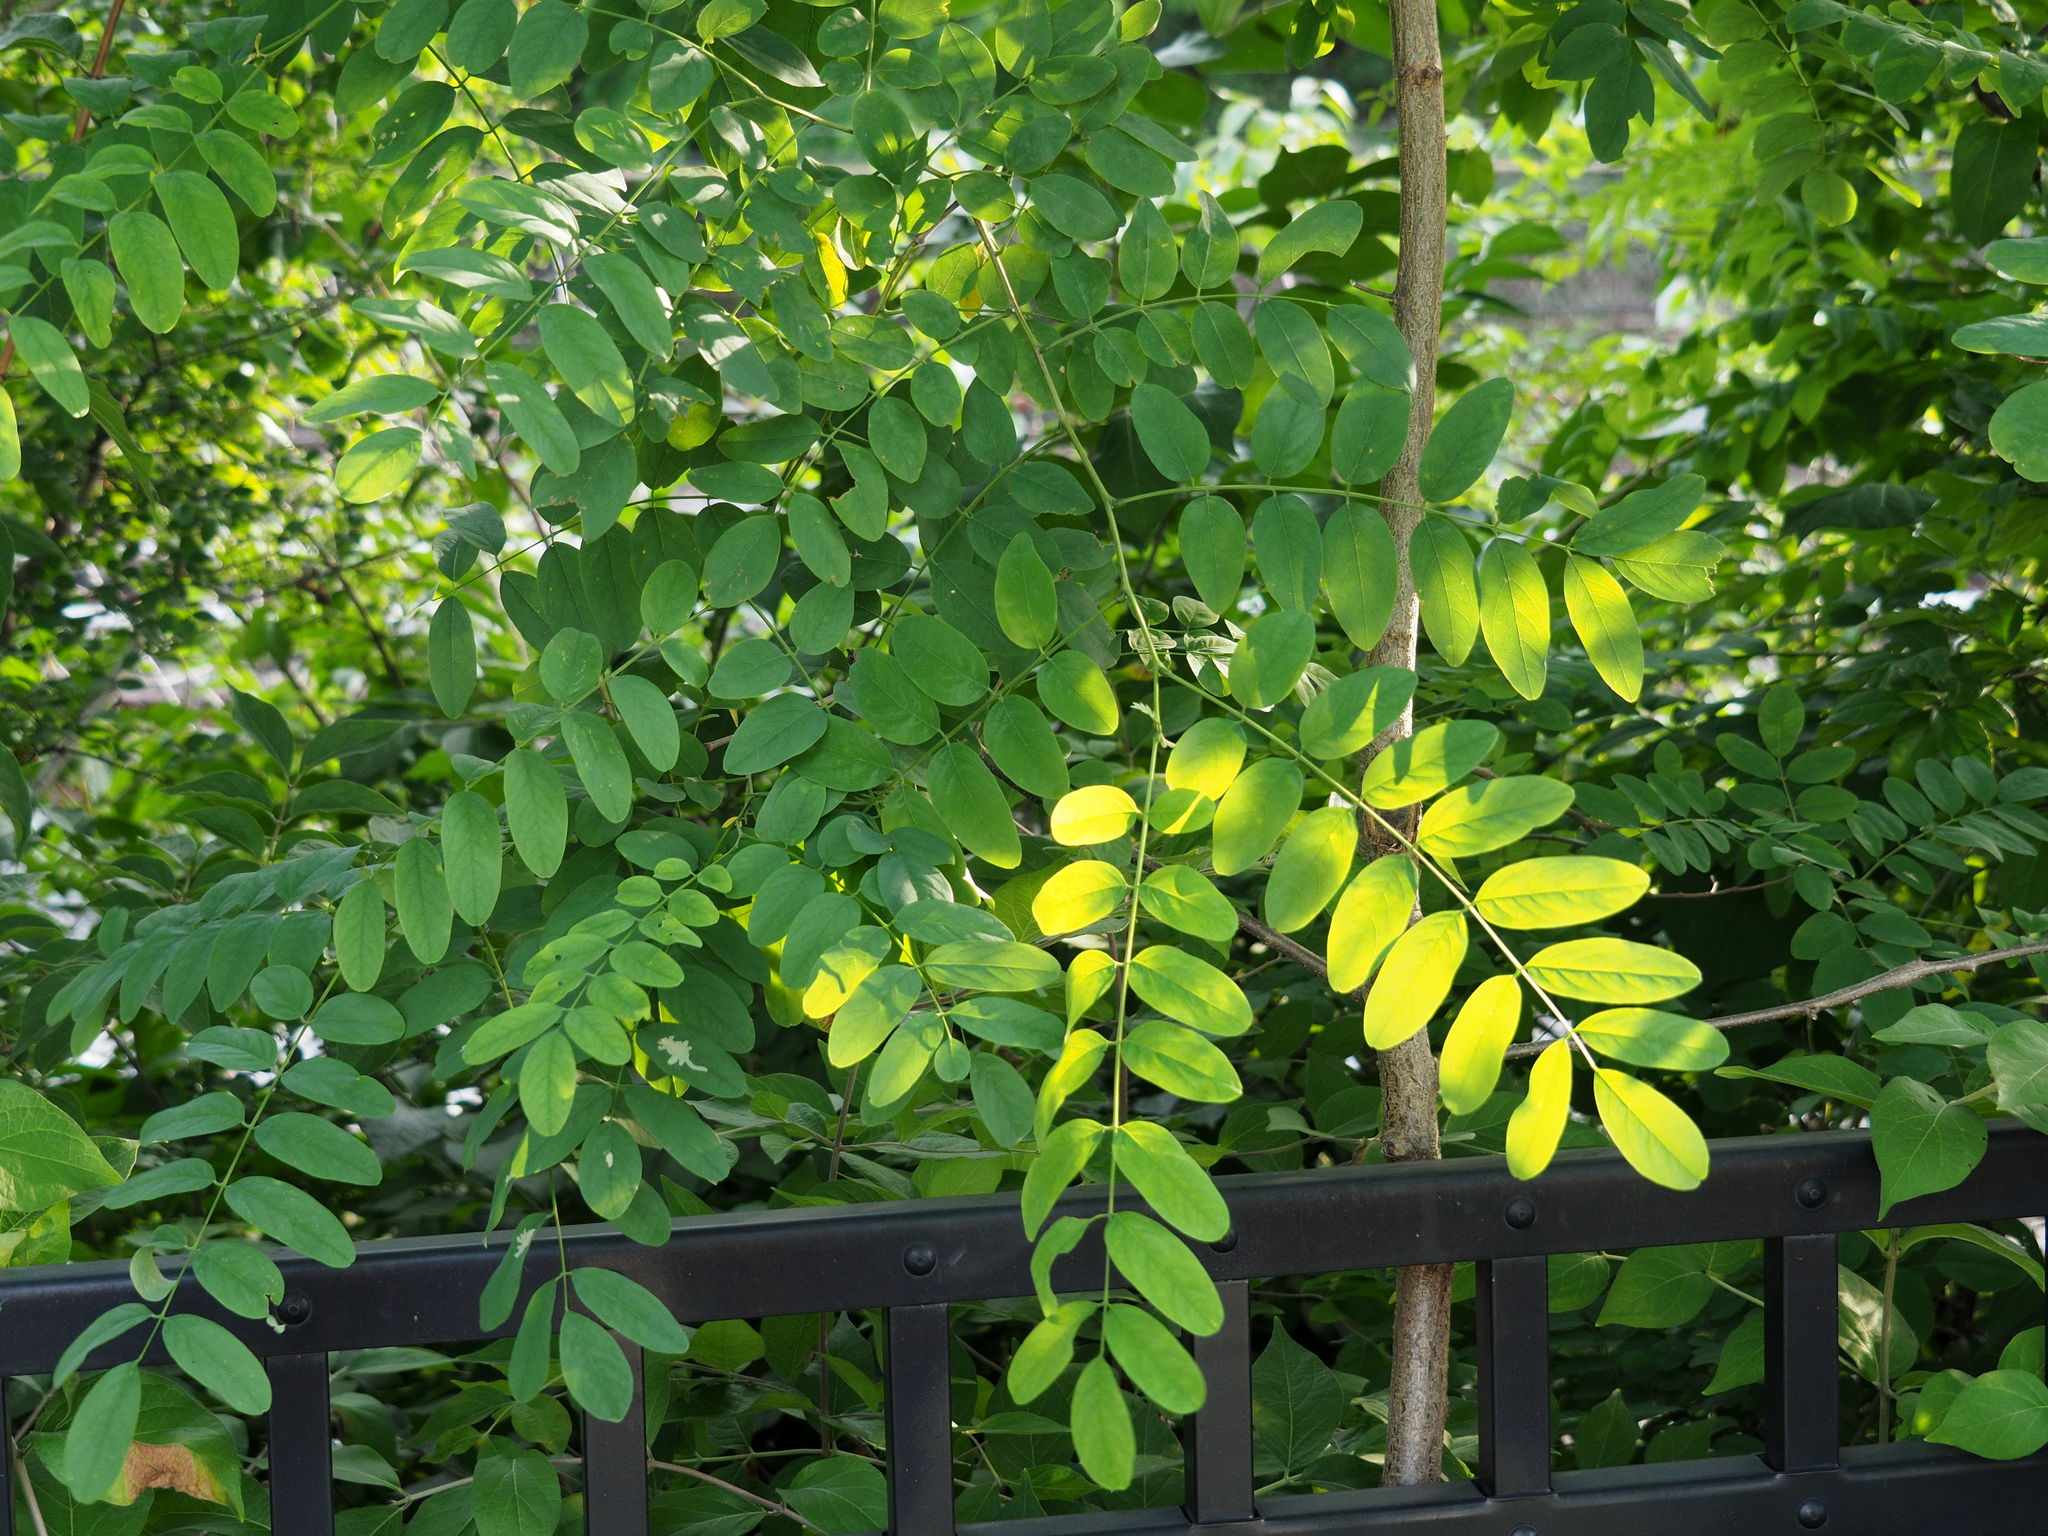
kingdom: Plantae
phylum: Tracheophyta
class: Magnoliopsida
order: Fabales
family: Fabaceae
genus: Robinia
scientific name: Robinia pseudoacacia
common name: Black locust
